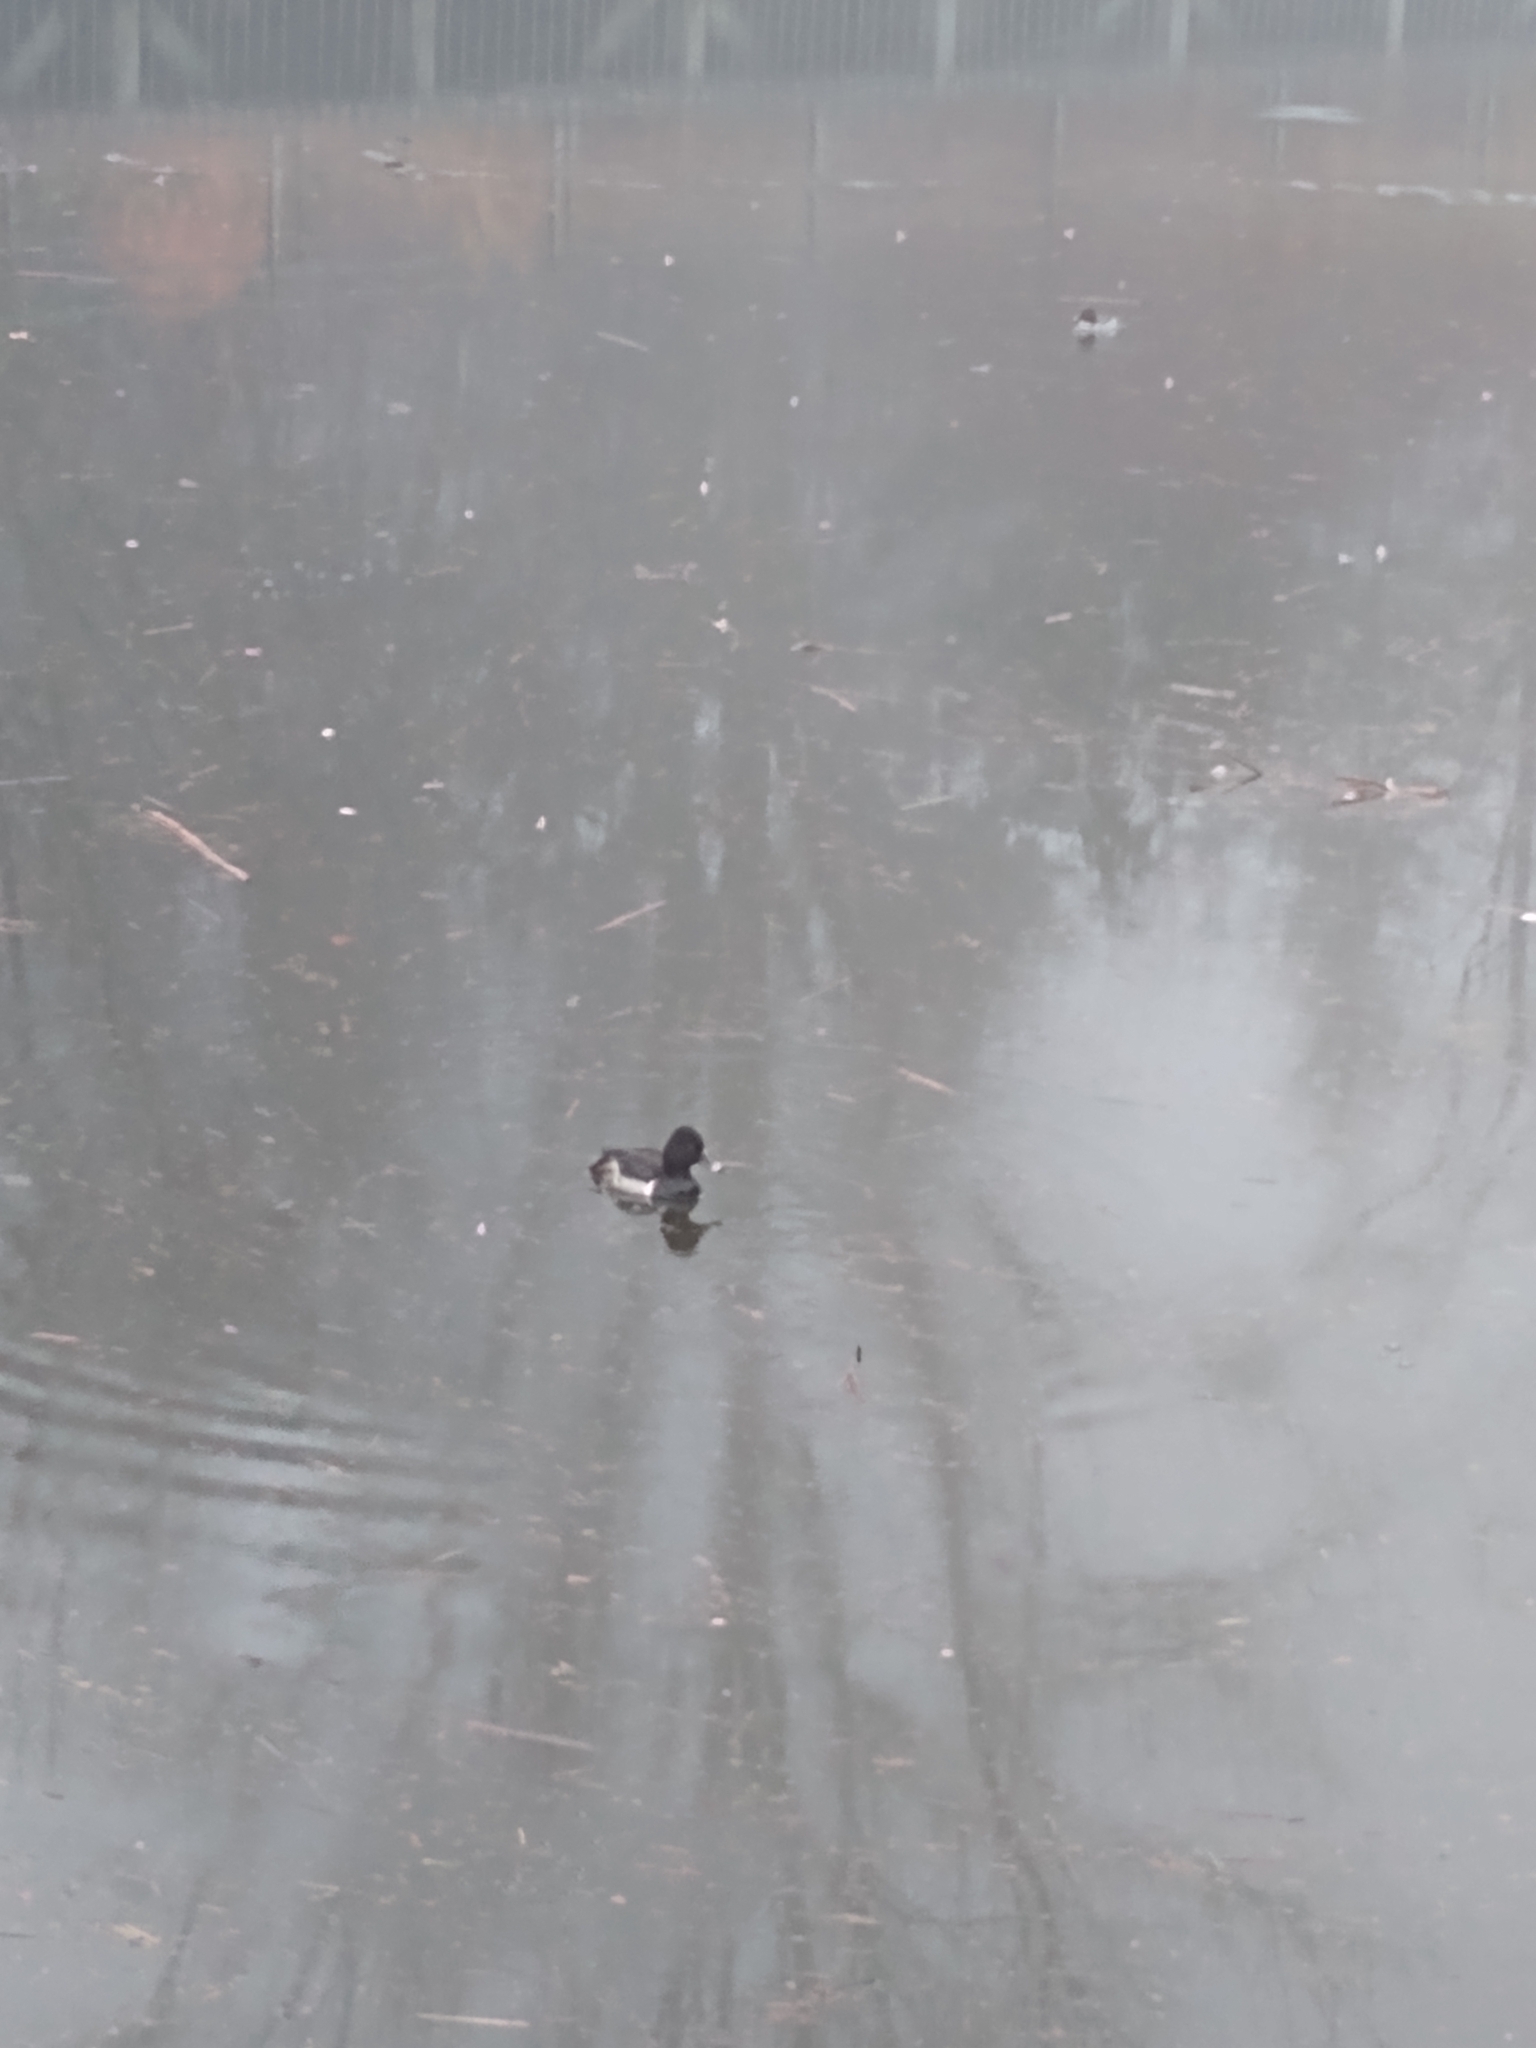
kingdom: Animalia
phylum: Chordata
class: Aves
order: Anseriformes
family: Anatidae
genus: Aythya
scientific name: Aythya collaris
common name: Ring-necked duck
